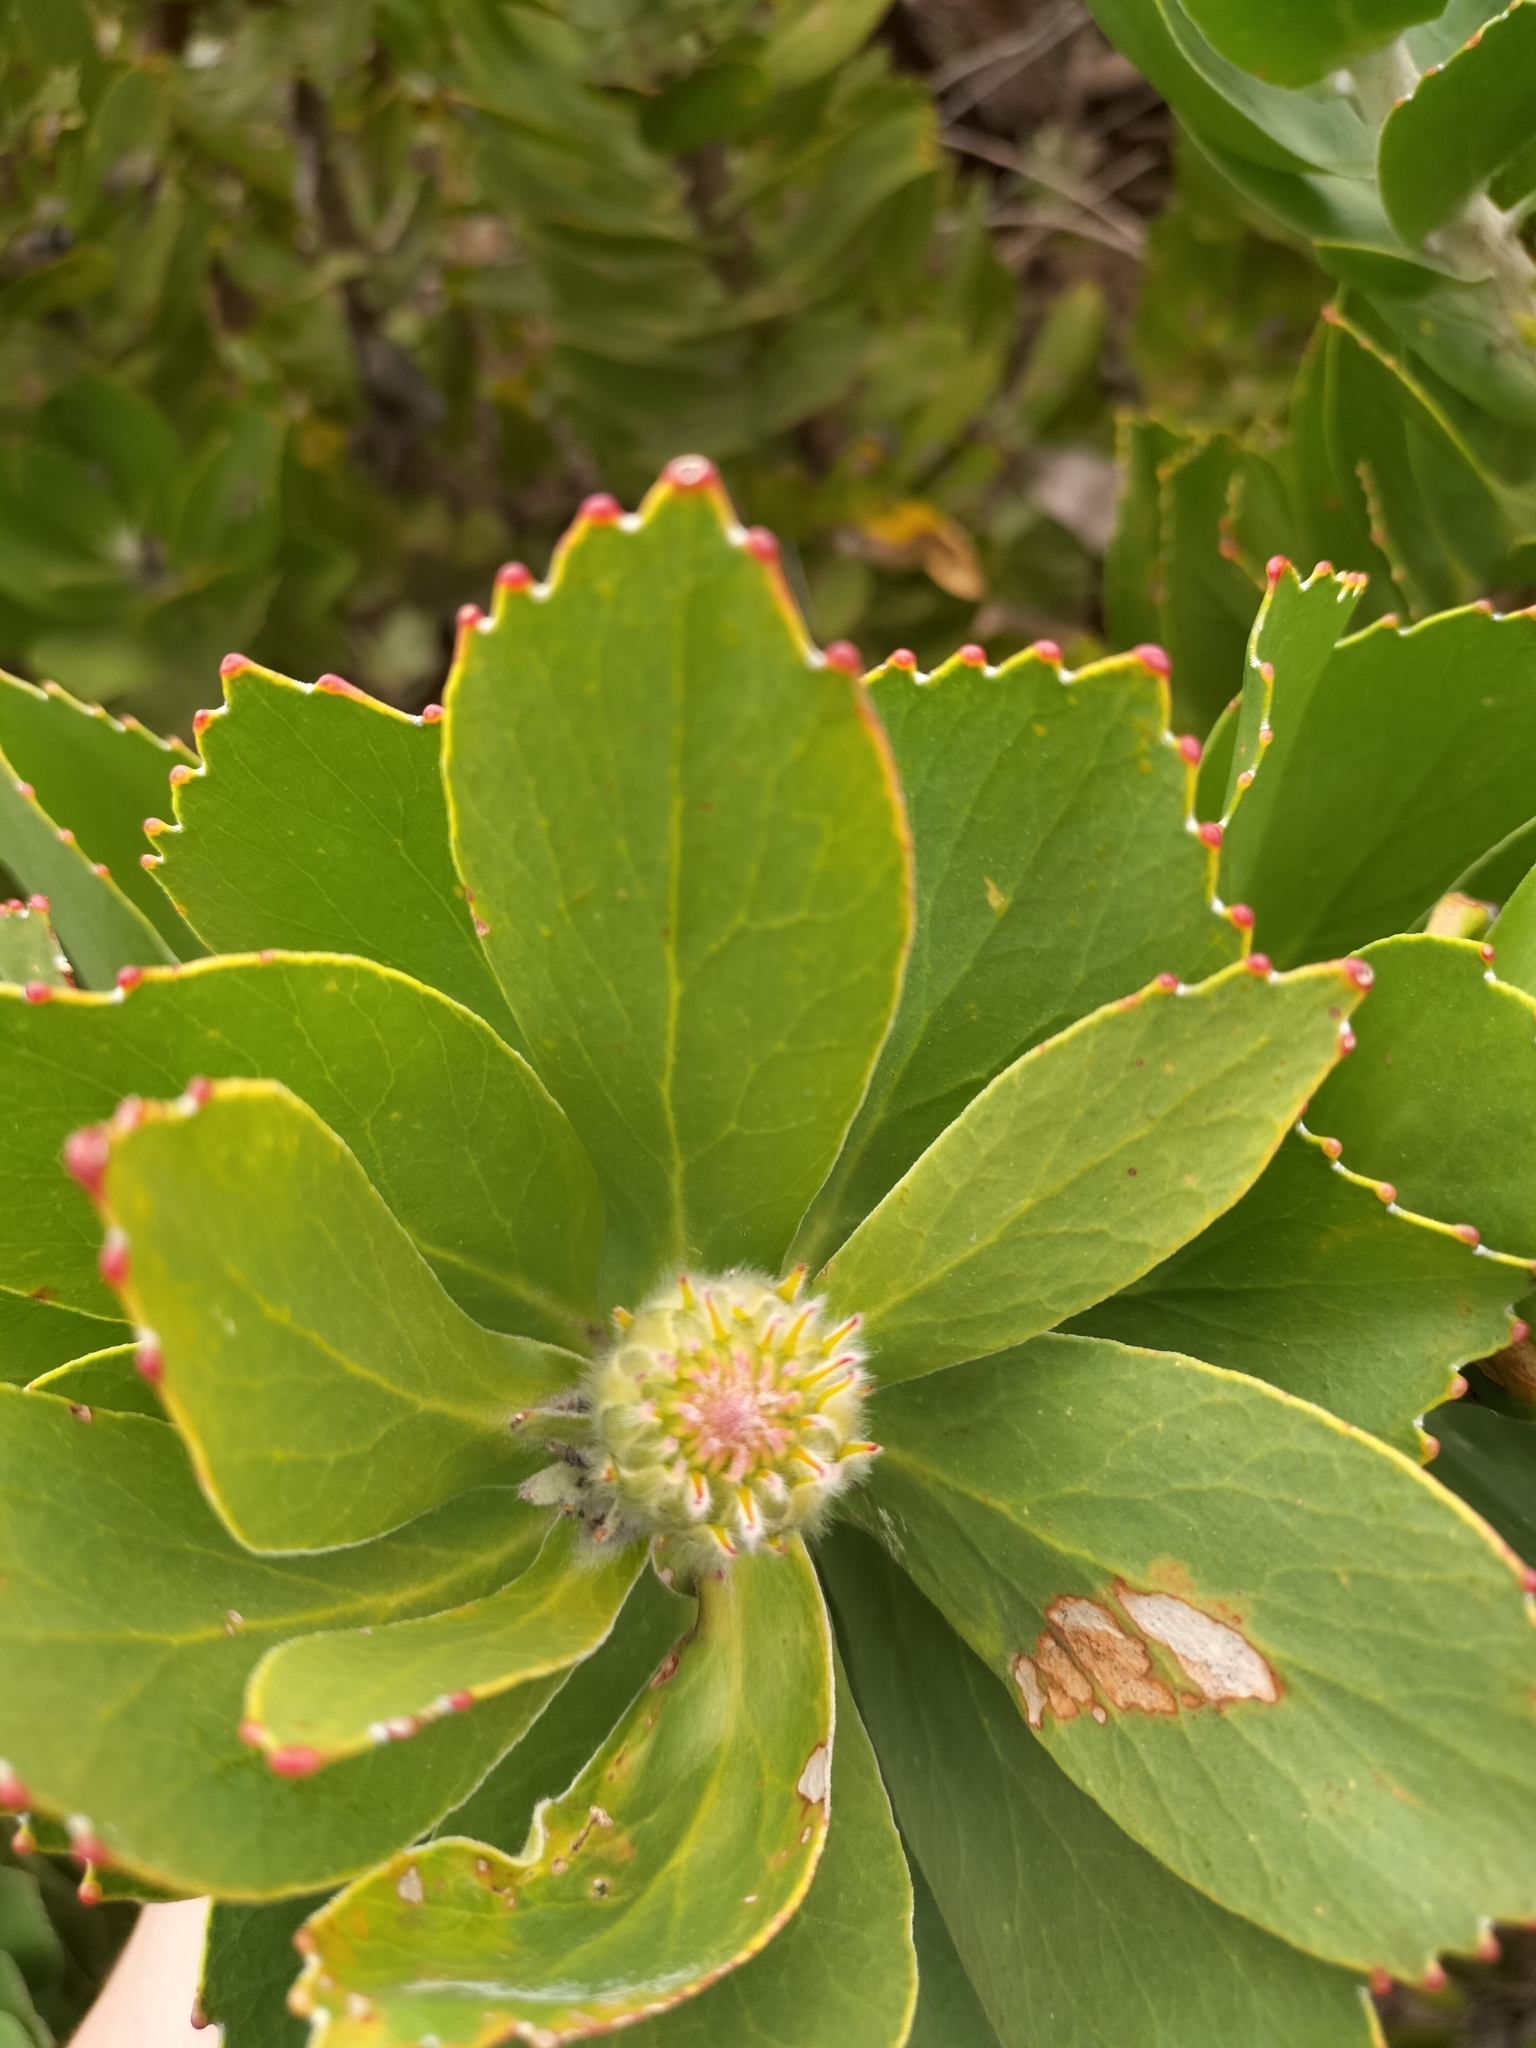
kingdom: Plantae
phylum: Tracheophyta
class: Magnoliopsida
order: Proteales
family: Proteaceae
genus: Leucospermum
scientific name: Leucospermum conocarpodendron
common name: Tree pincushion
